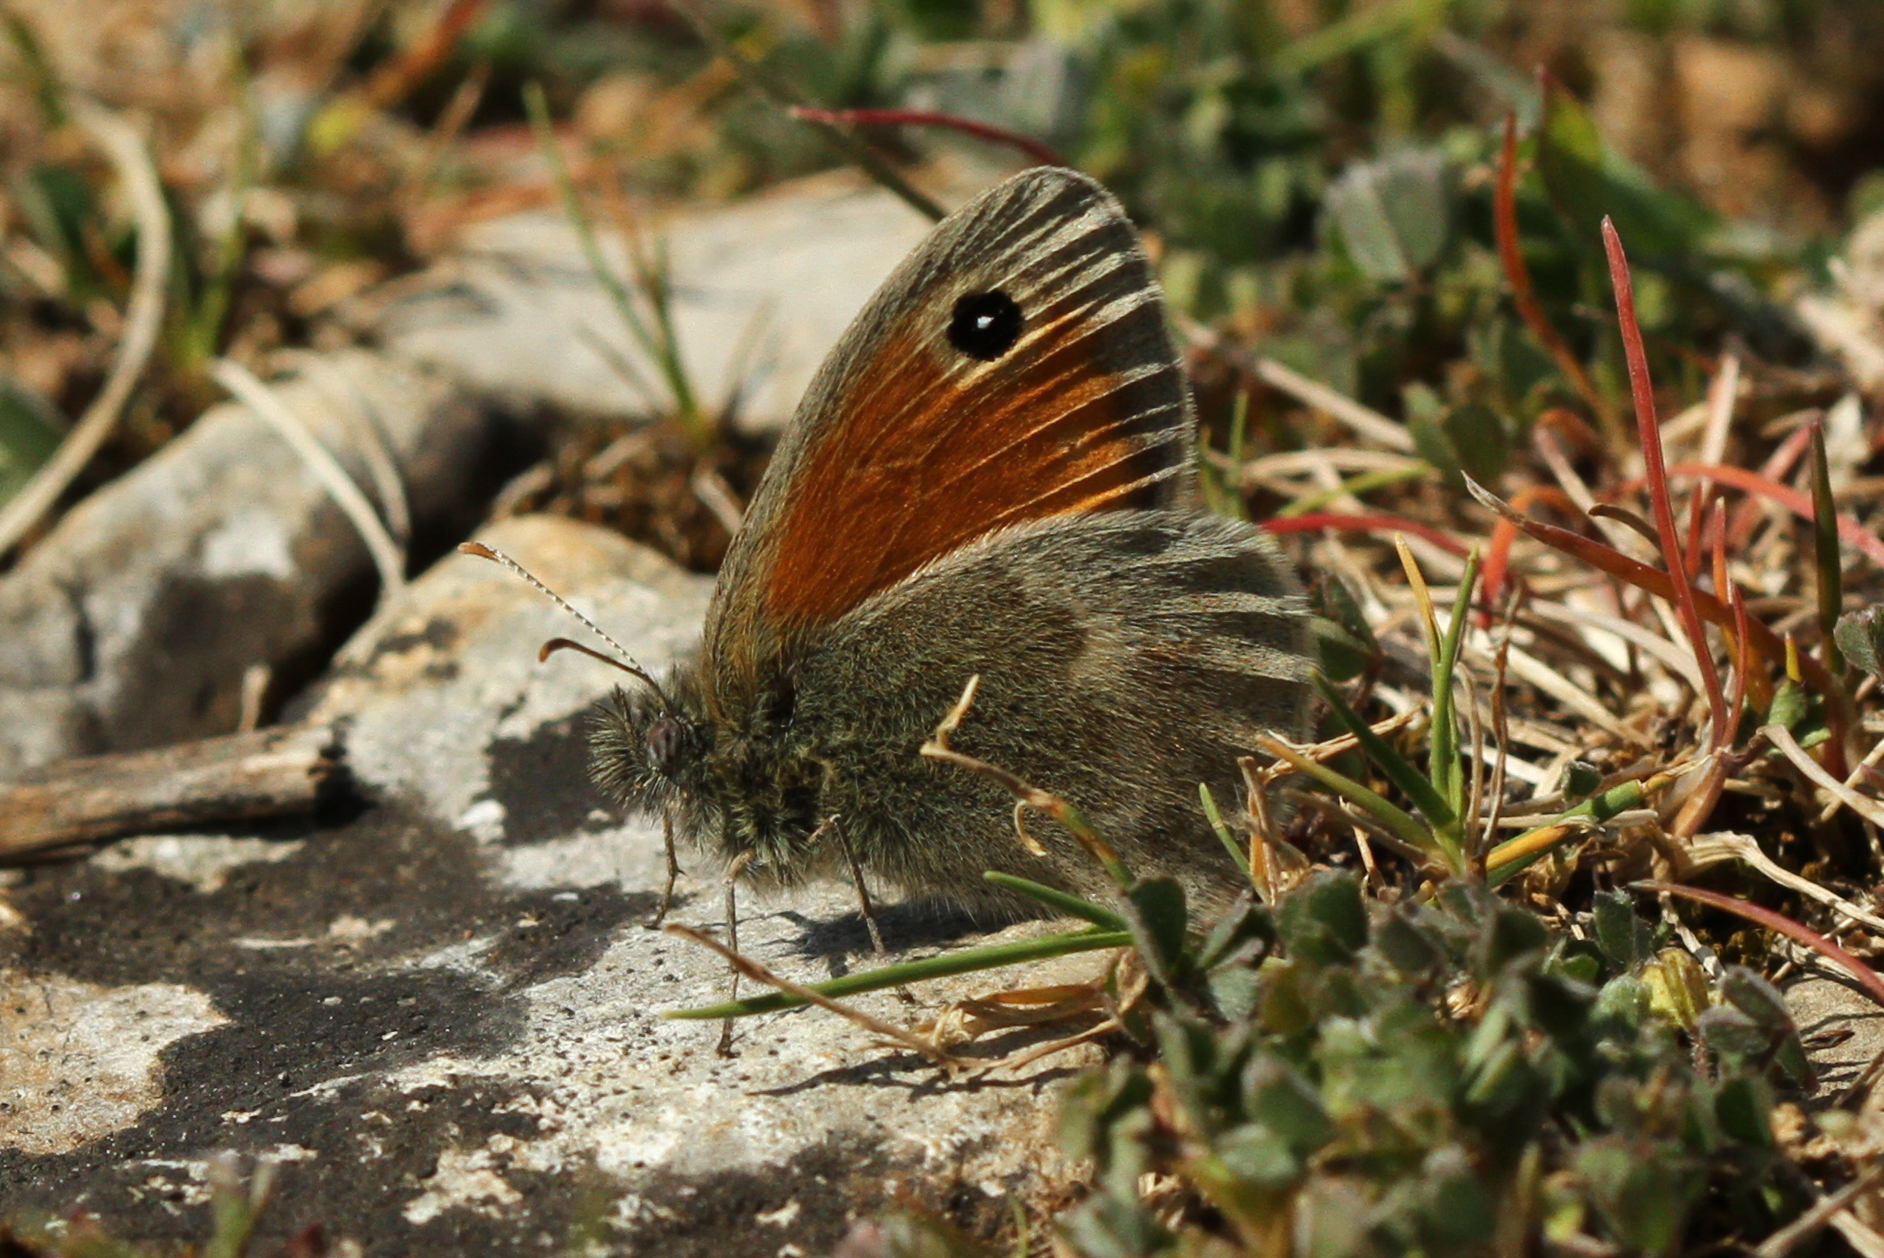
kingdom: Animalia
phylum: Arthropoda
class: Insecta
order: Lepidoptera
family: Nymphalidae
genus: Coenonympha
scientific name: Coenonympha pamphilus
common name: Small heath
